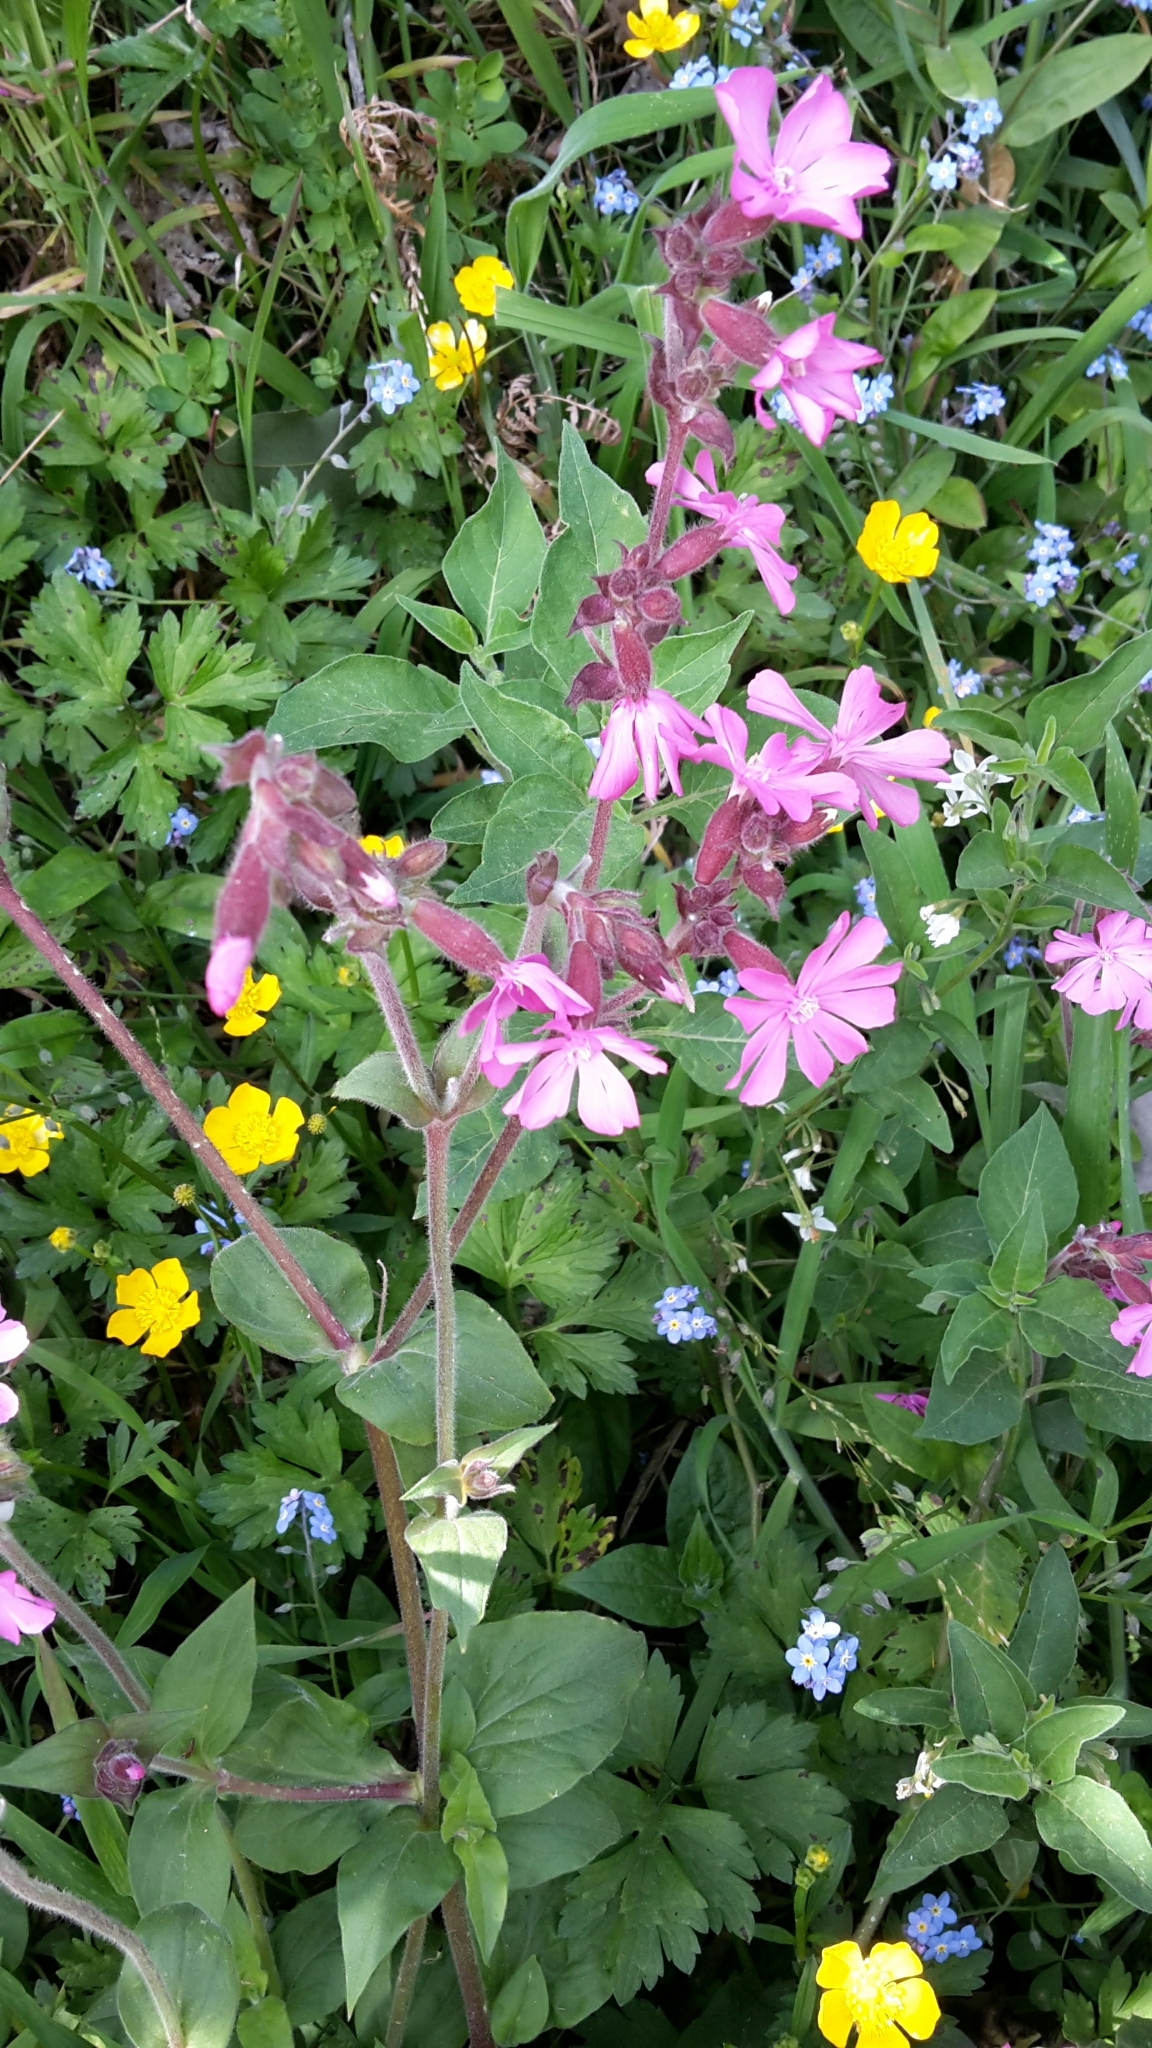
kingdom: Plantae
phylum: Tracheophyta
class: Magnoliopsida
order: Caryophyllales
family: Caryophyllaceae
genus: Silene
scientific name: Silene dioica
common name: Red campion
